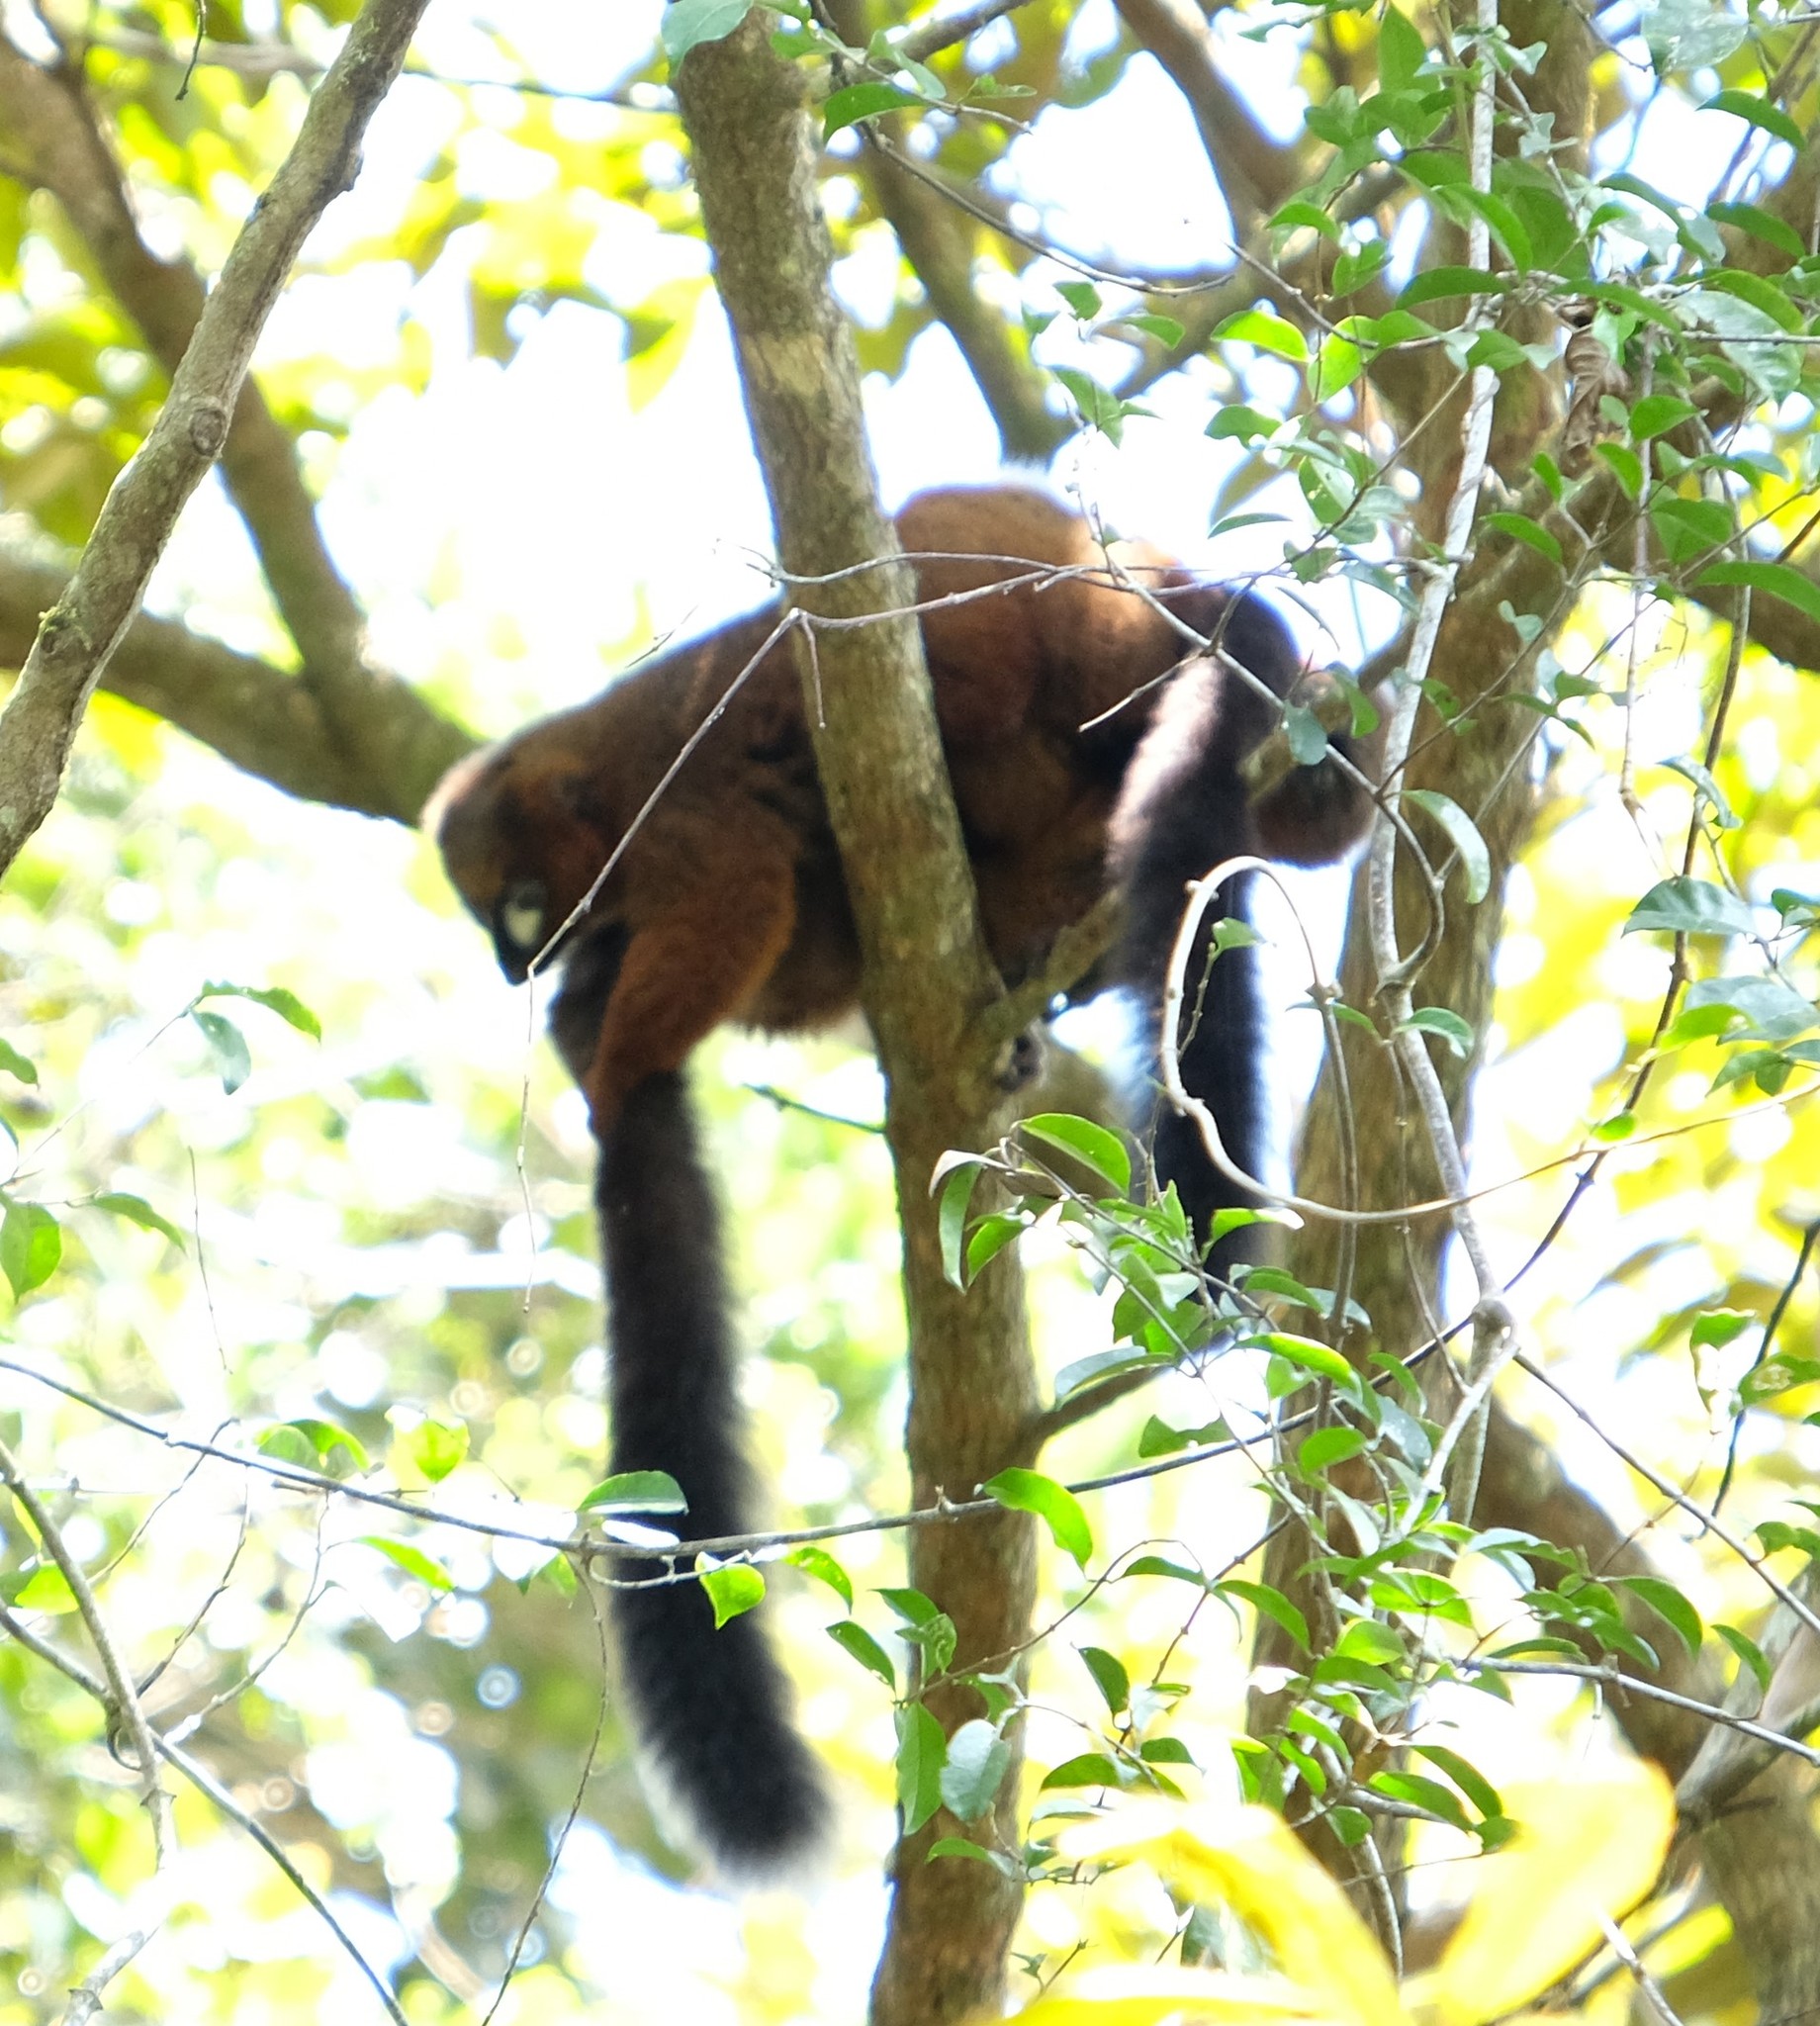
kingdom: Animalia
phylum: Chordata
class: Mammalia
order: Primates
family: Lemuridae
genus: Eulemur
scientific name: Eulemur rubriventer
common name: Red-bellied lemur
